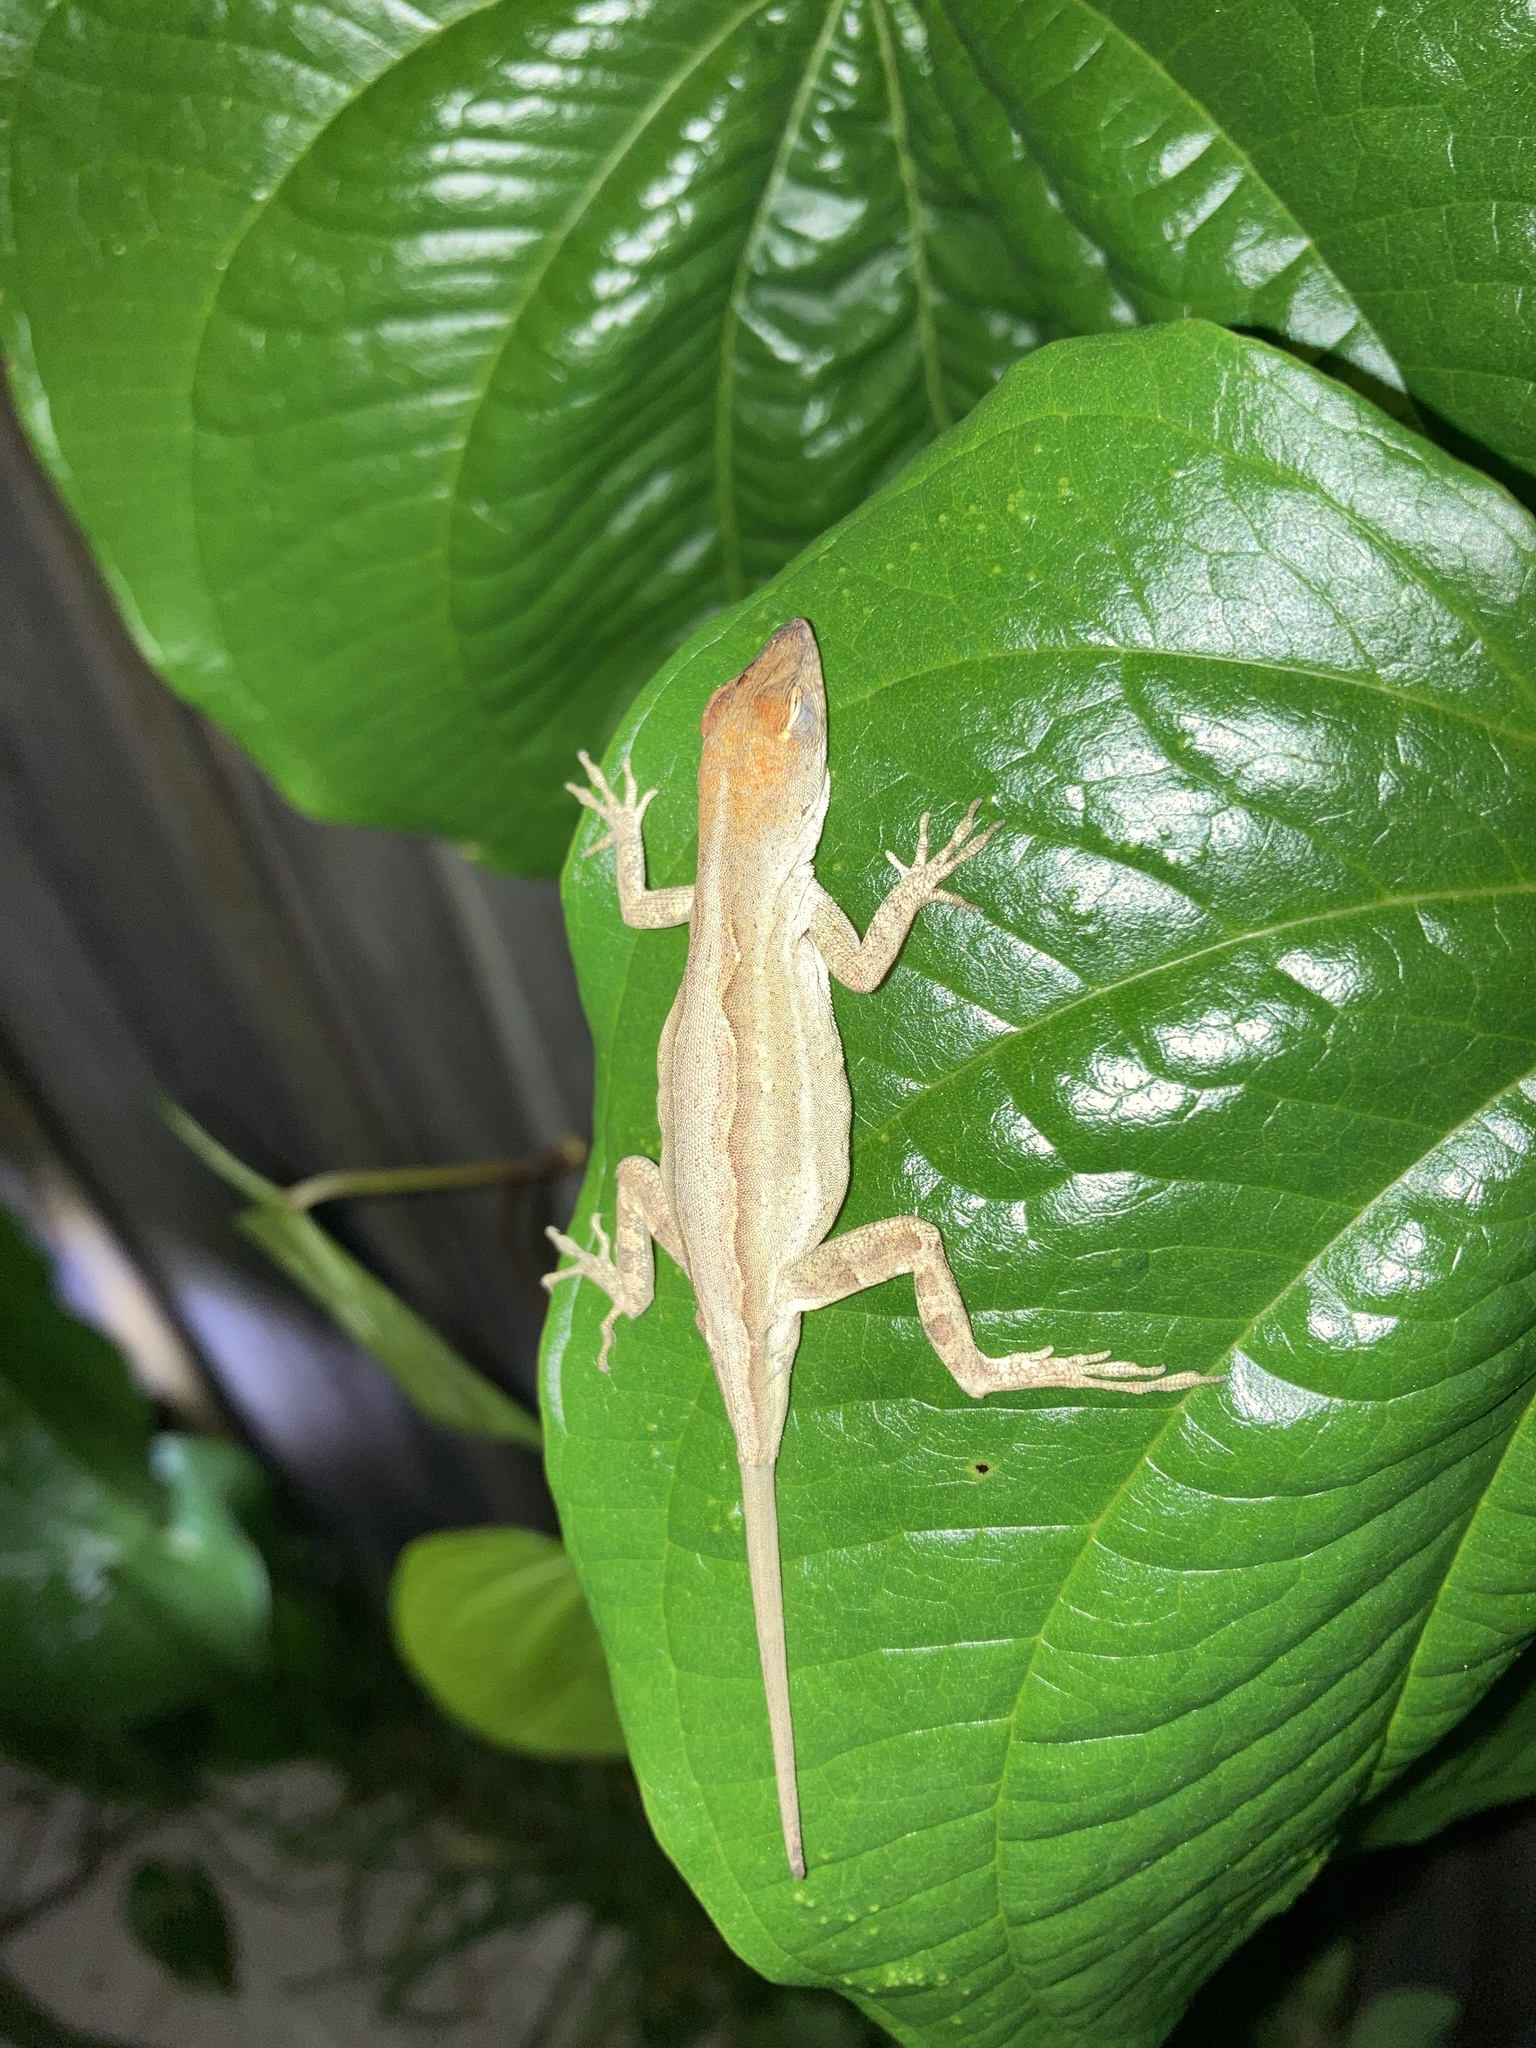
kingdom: Animalia
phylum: Chordata
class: Squamata
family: Dactyloidae
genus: Anolis
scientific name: Anolis sagrei
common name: Brown anole
